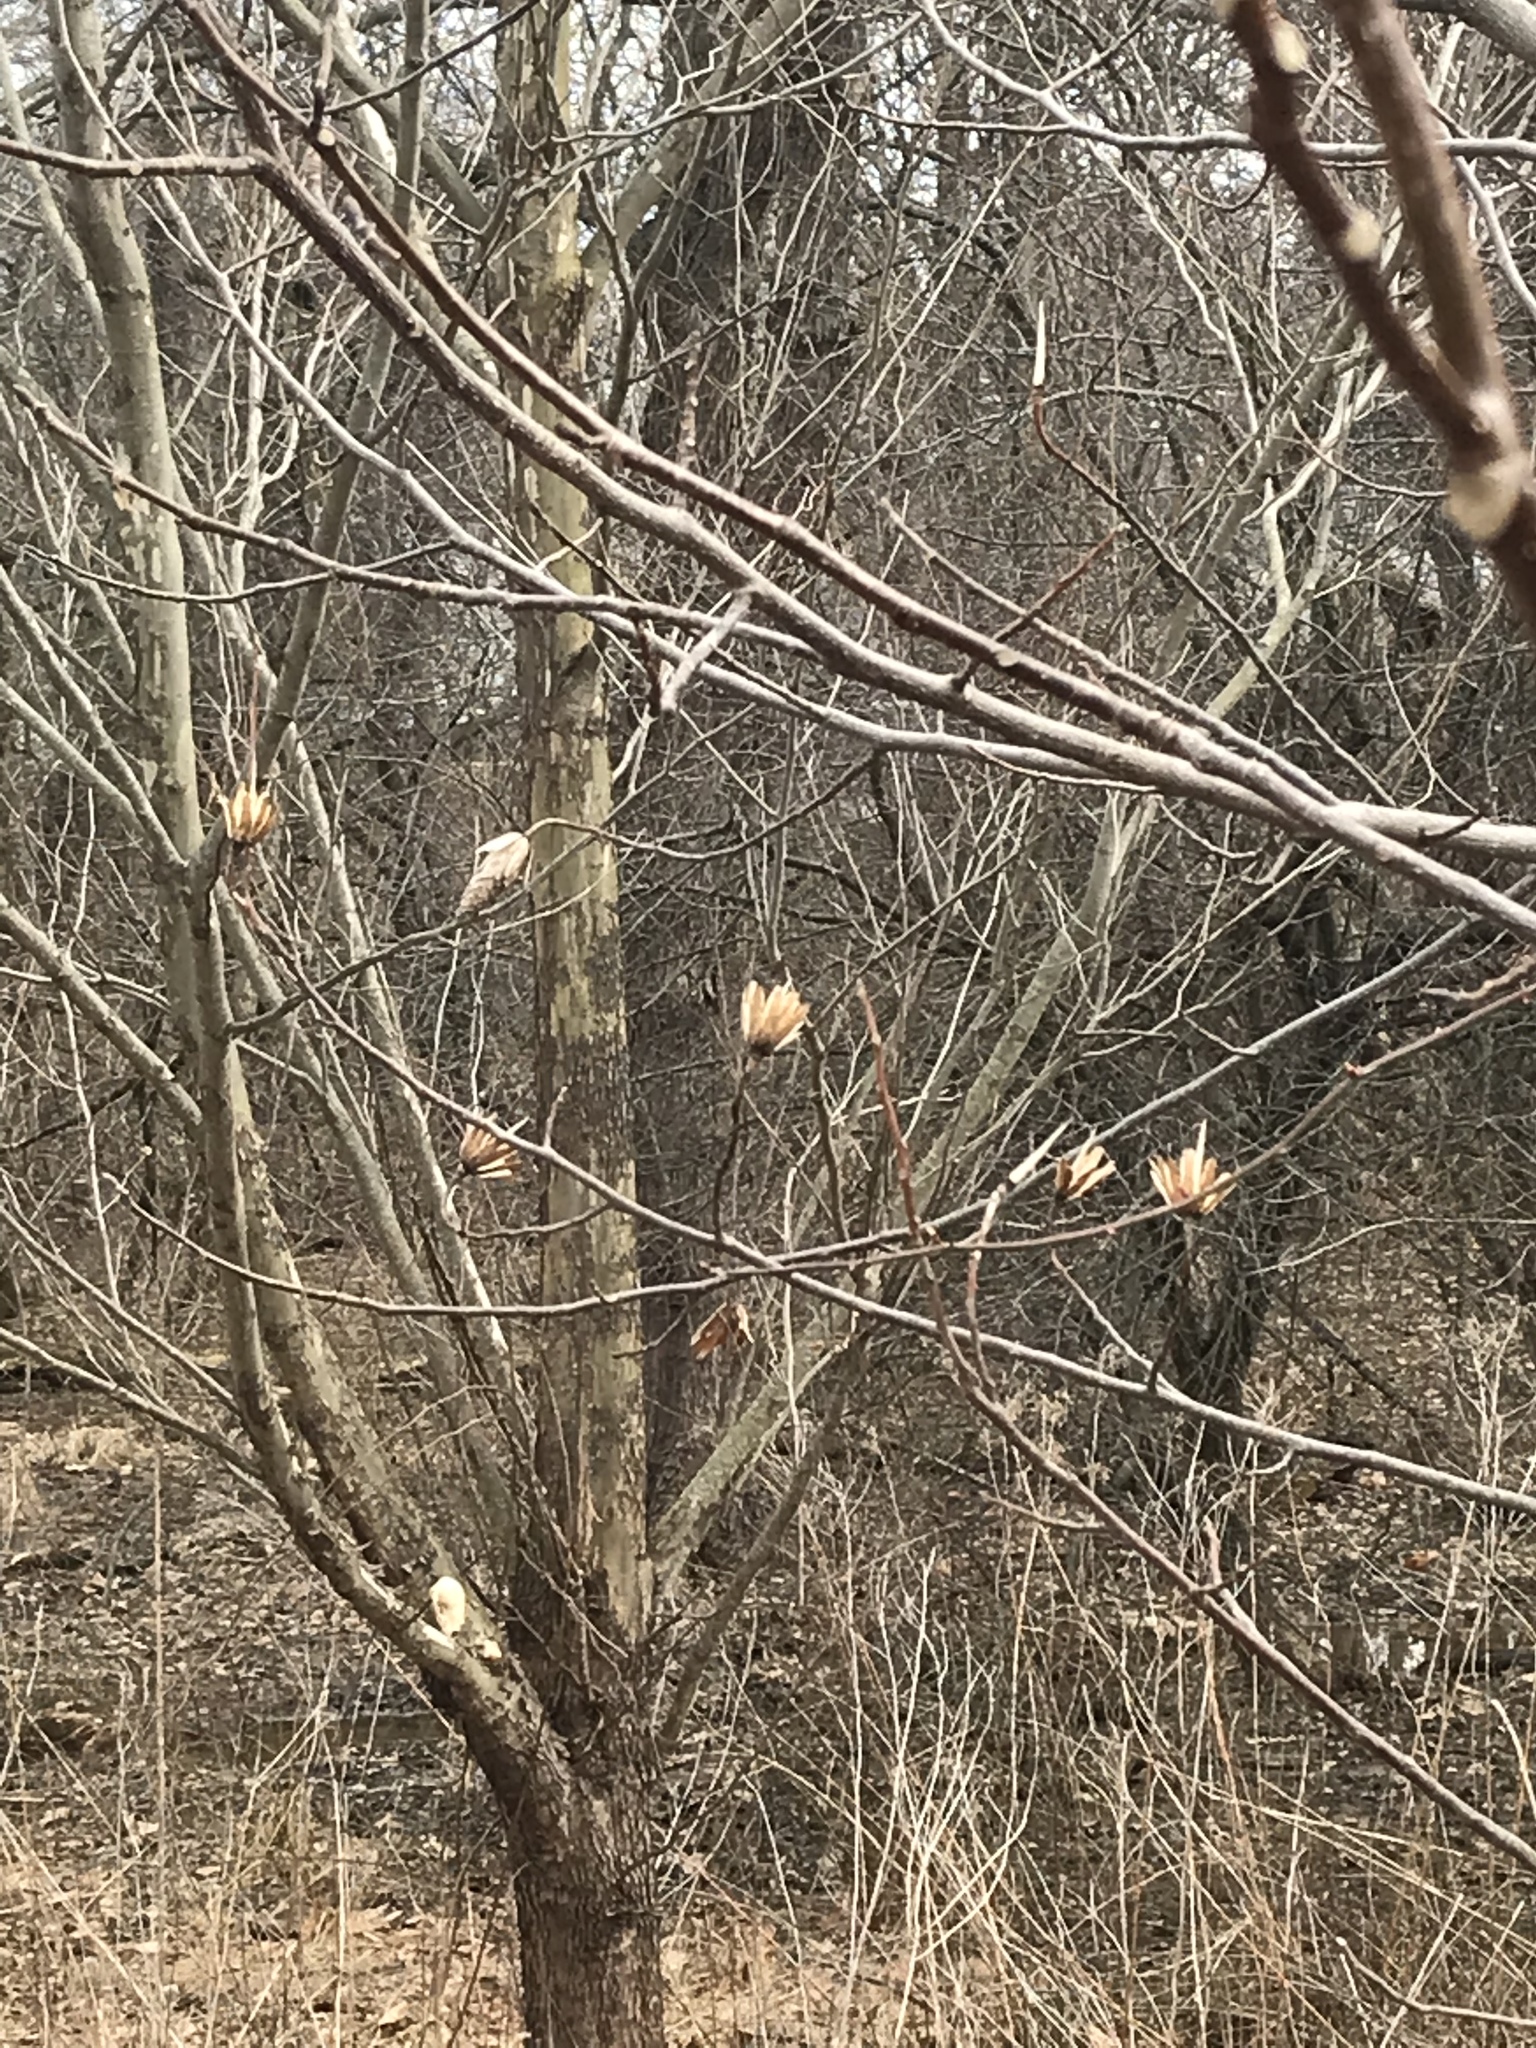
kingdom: Plantae
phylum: Tracheophyta
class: Magnoliopsida
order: Magnoliales
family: Magnoliaceae
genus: Liriodendron
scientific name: Liriodendron tulipifera
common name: Tulip tree
